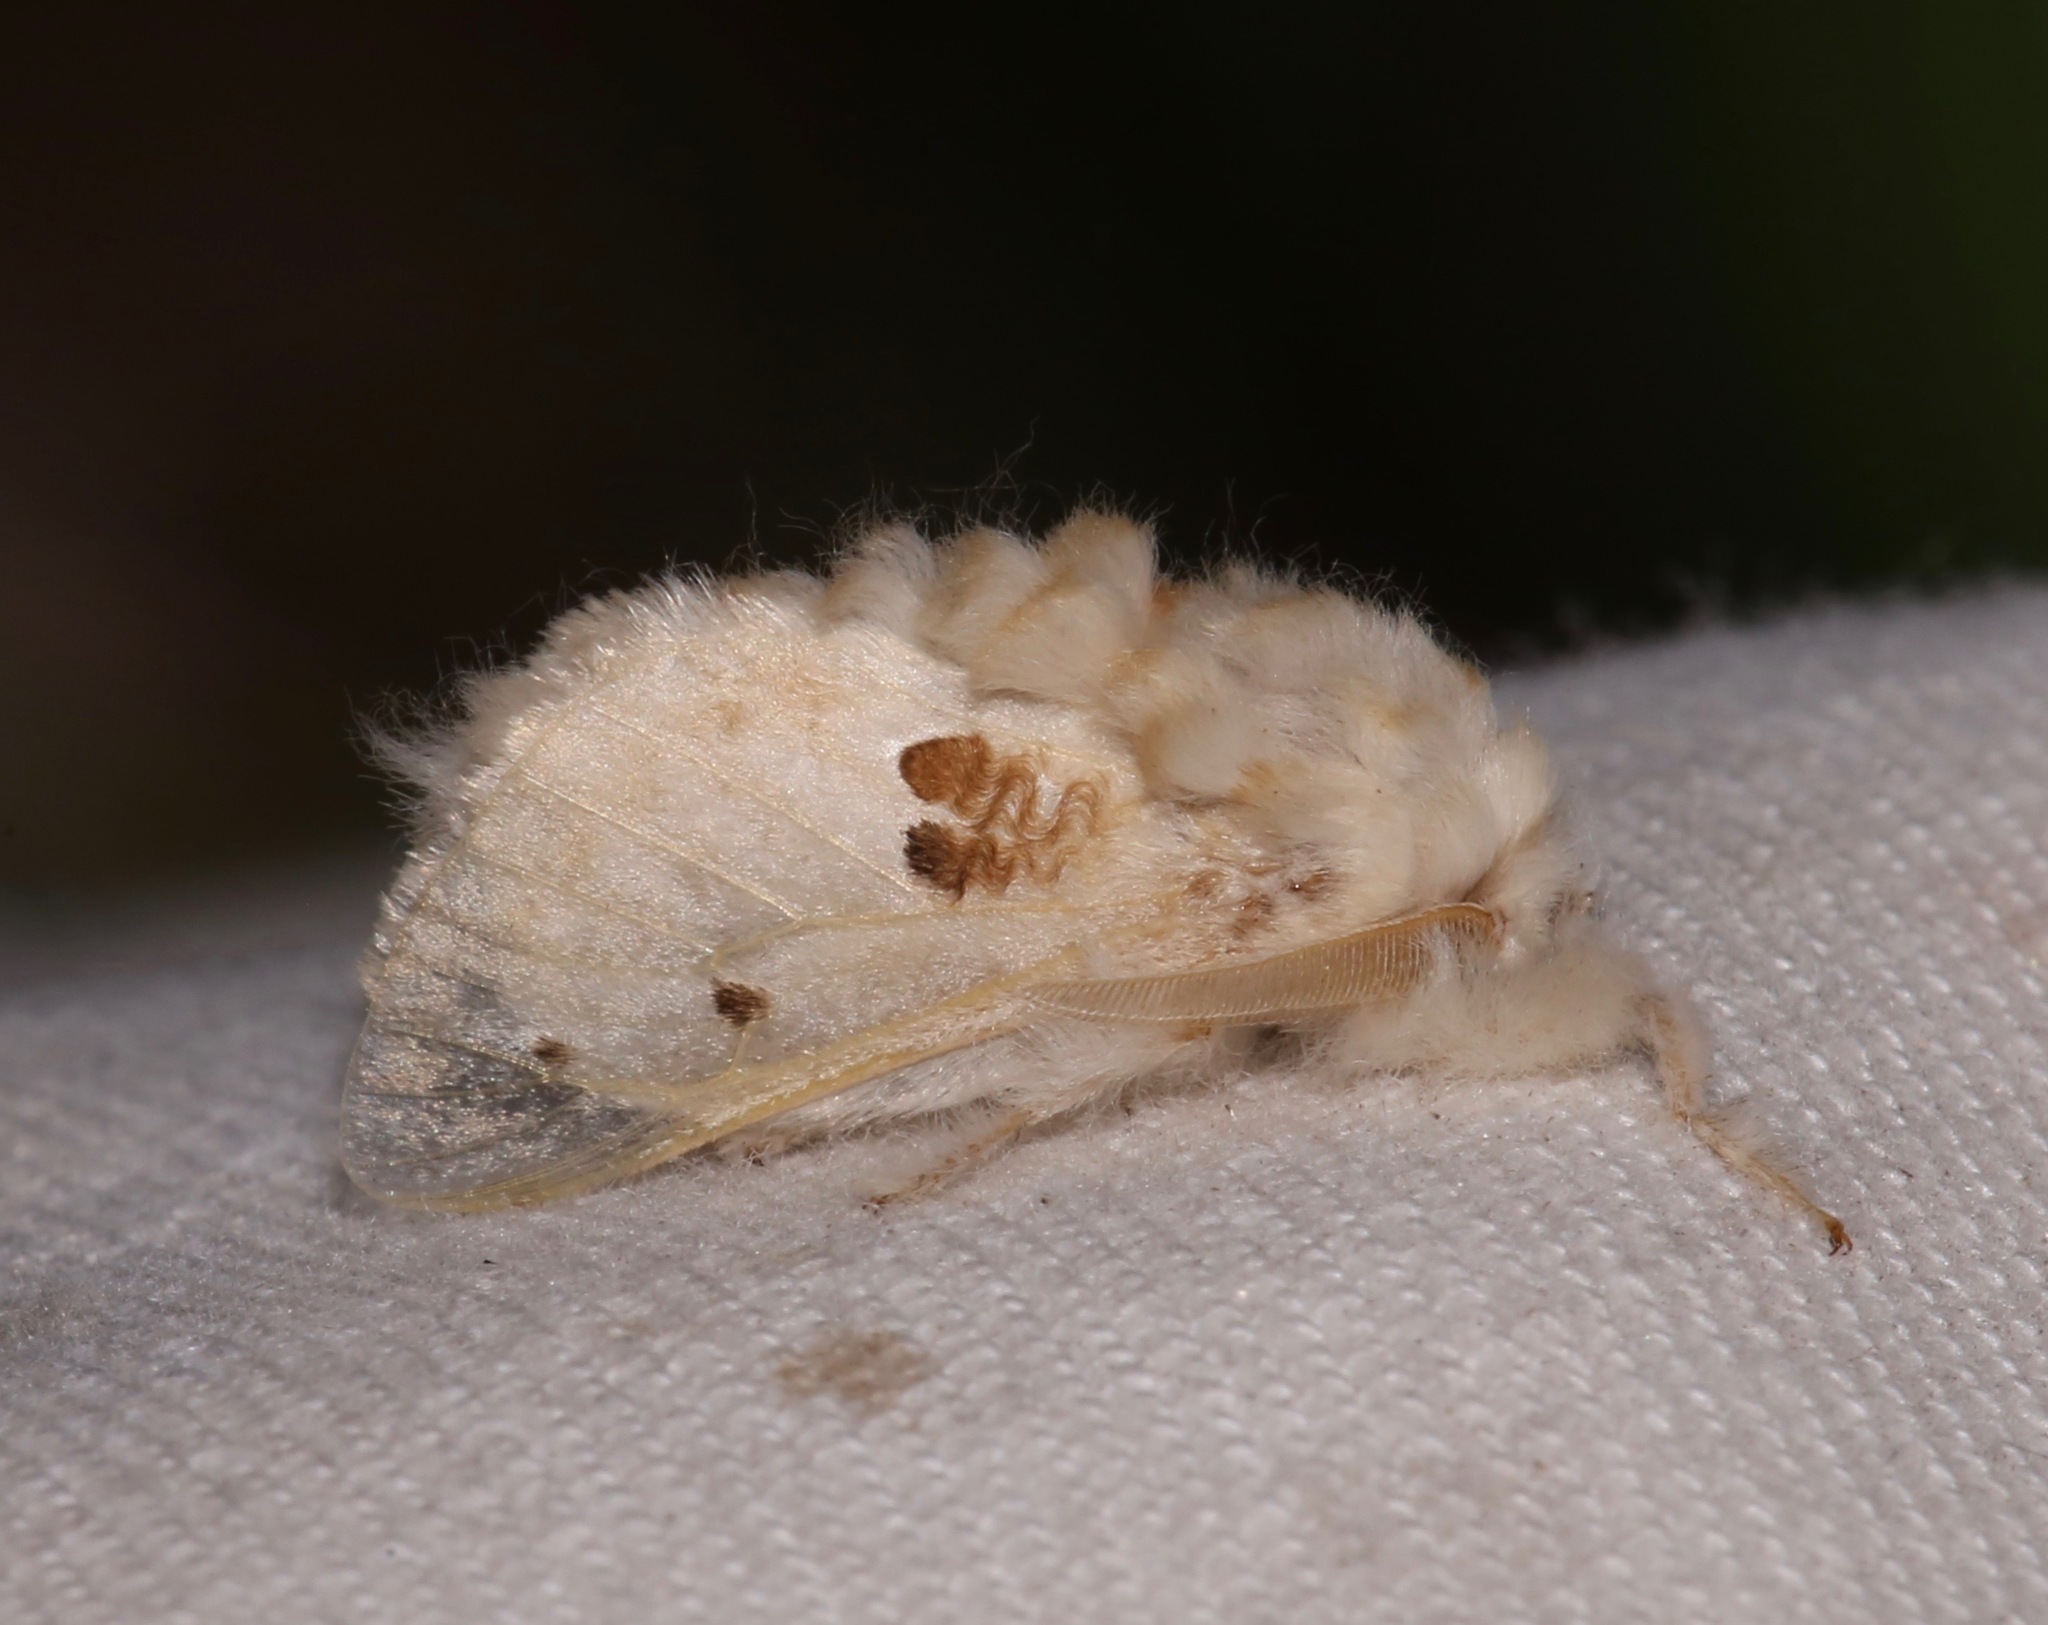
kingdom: Animalia
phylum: Arthropoda
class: Insecta
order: Lepidoptera
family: Megalopygidae
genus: Megalopyge
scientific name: Megalopyge lapena
